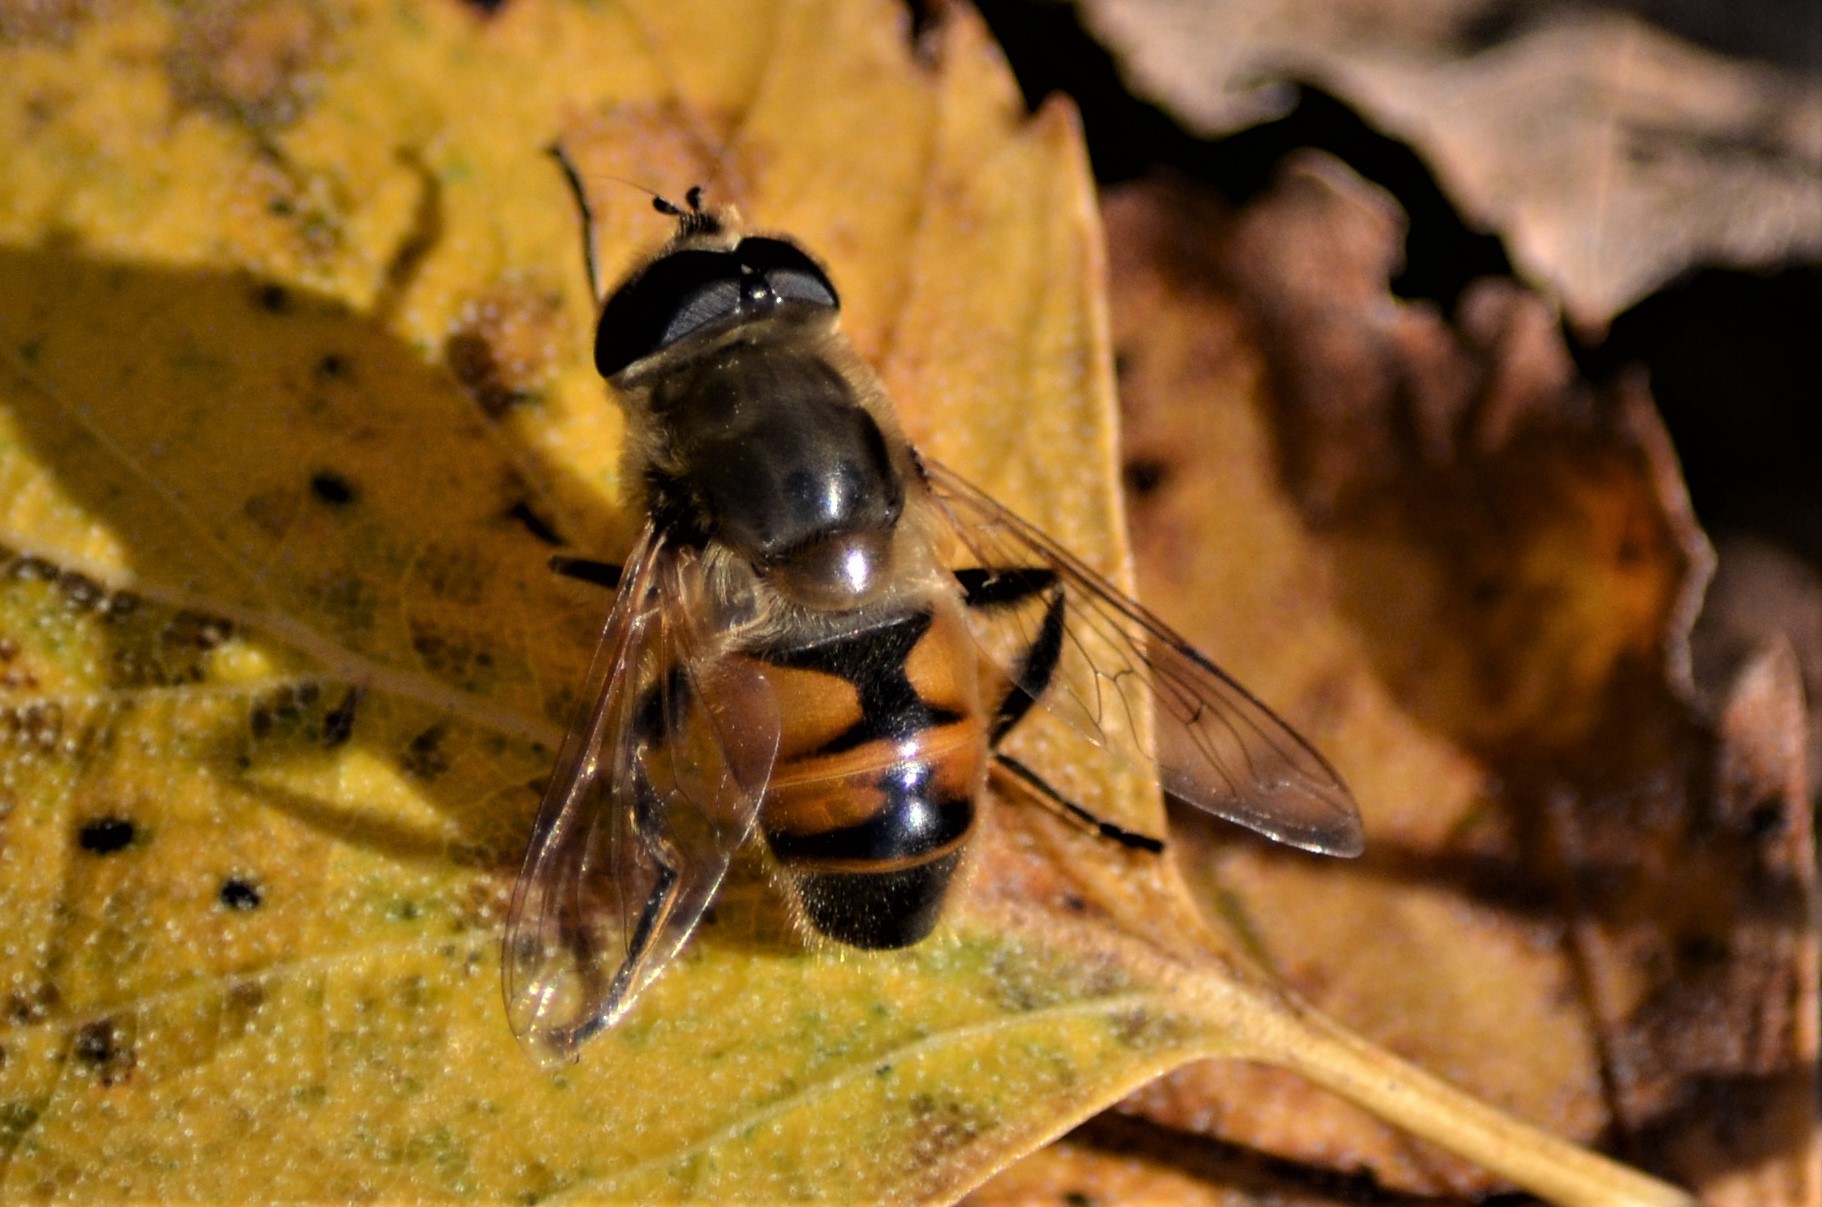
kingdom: Animalia
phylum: Arthropoda
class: Insecta
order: Diptera
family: Syrphidae
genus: Eristalis
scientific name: Eristalis tenax
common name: Drone fly
